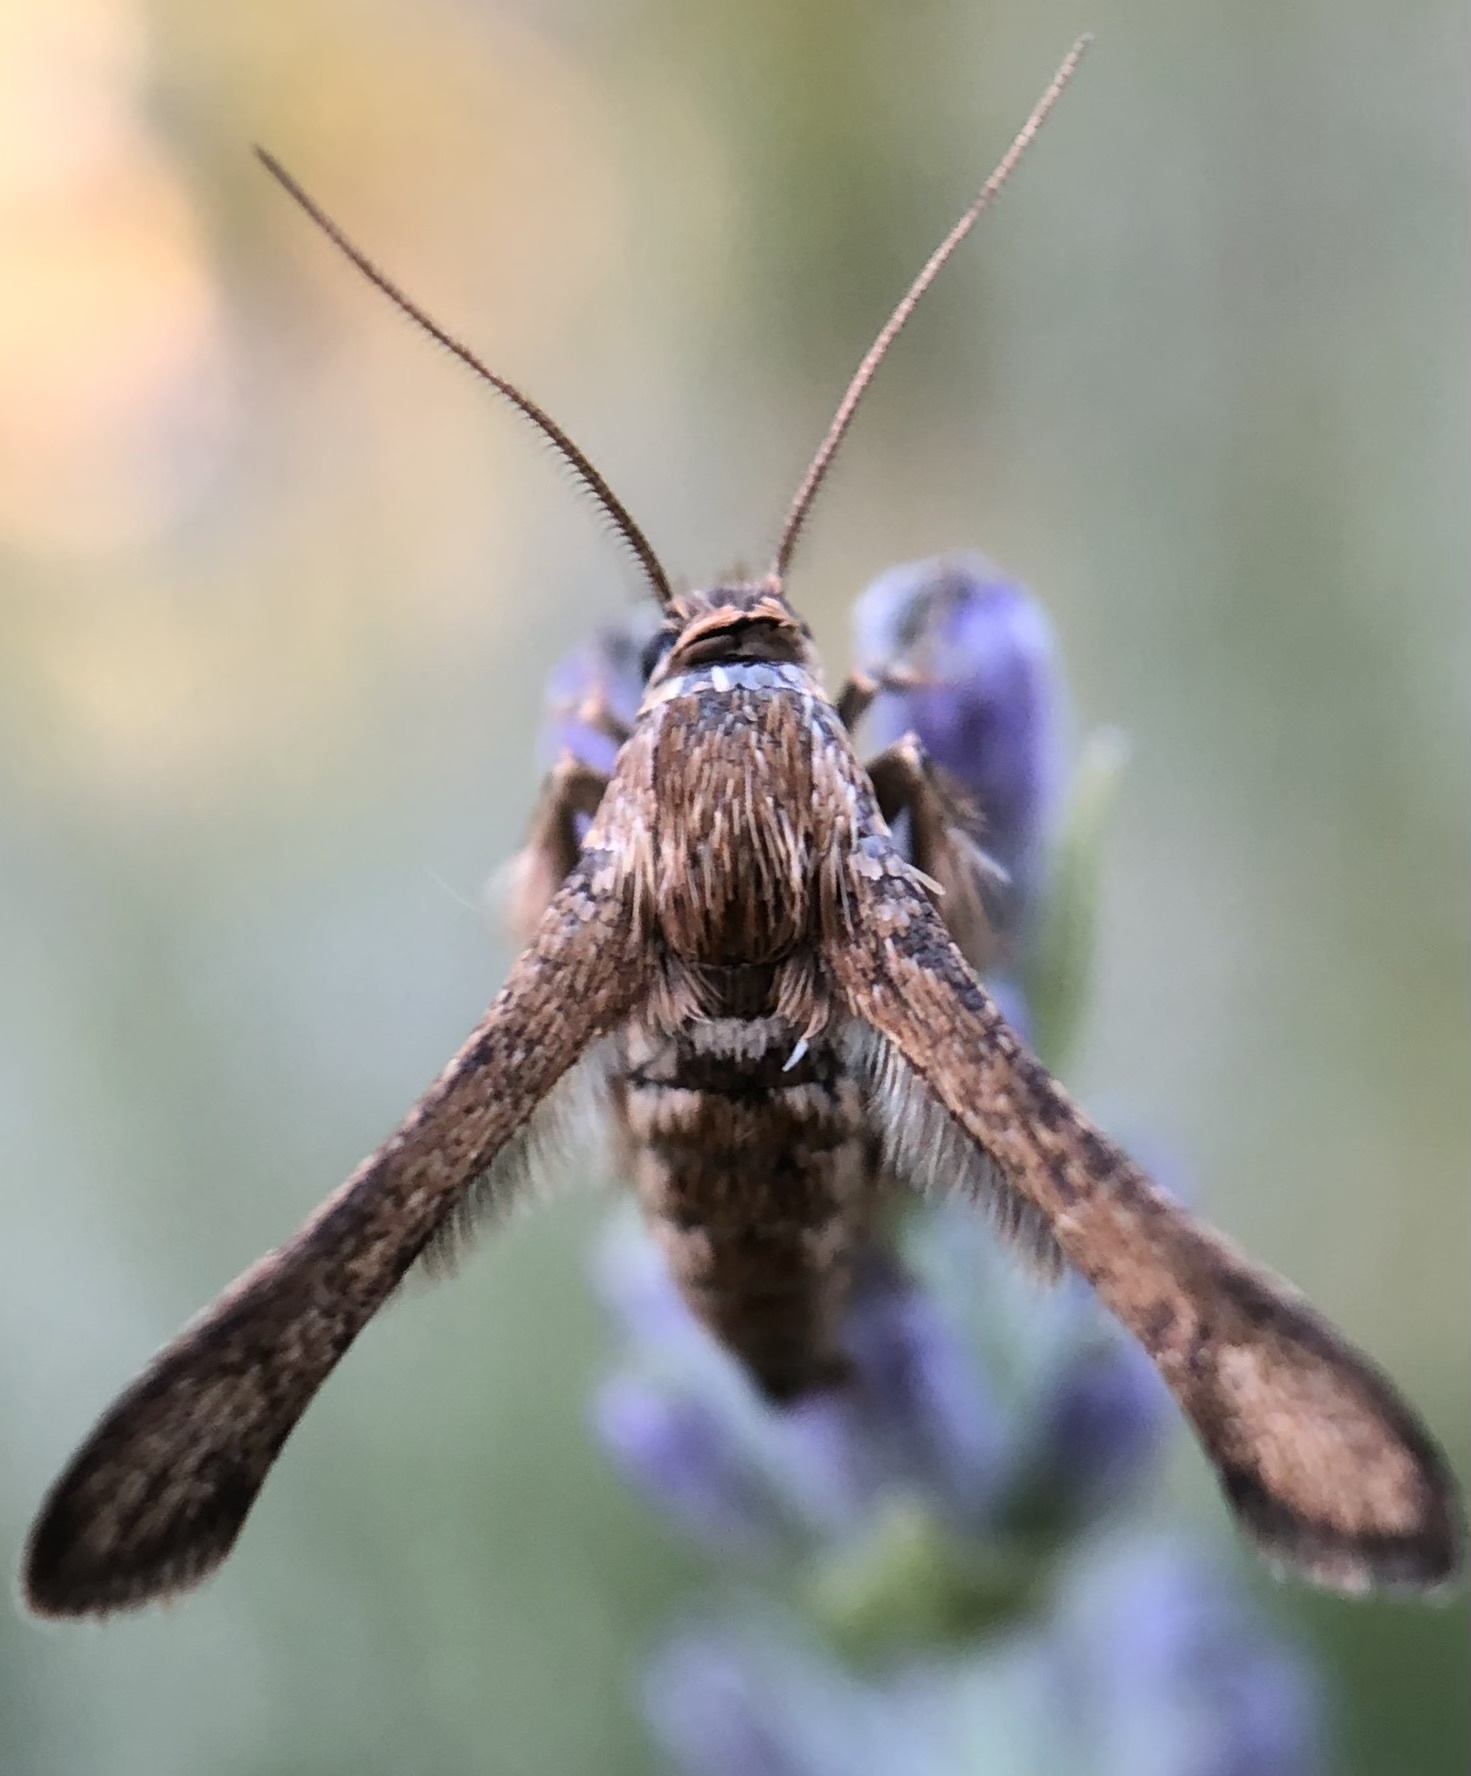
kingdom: Animalia
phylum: Arthropoda
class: Insecta
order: Lepidoptera
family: Sesiidae
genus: Microsphecia
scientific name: Microsphecia tineiformis
